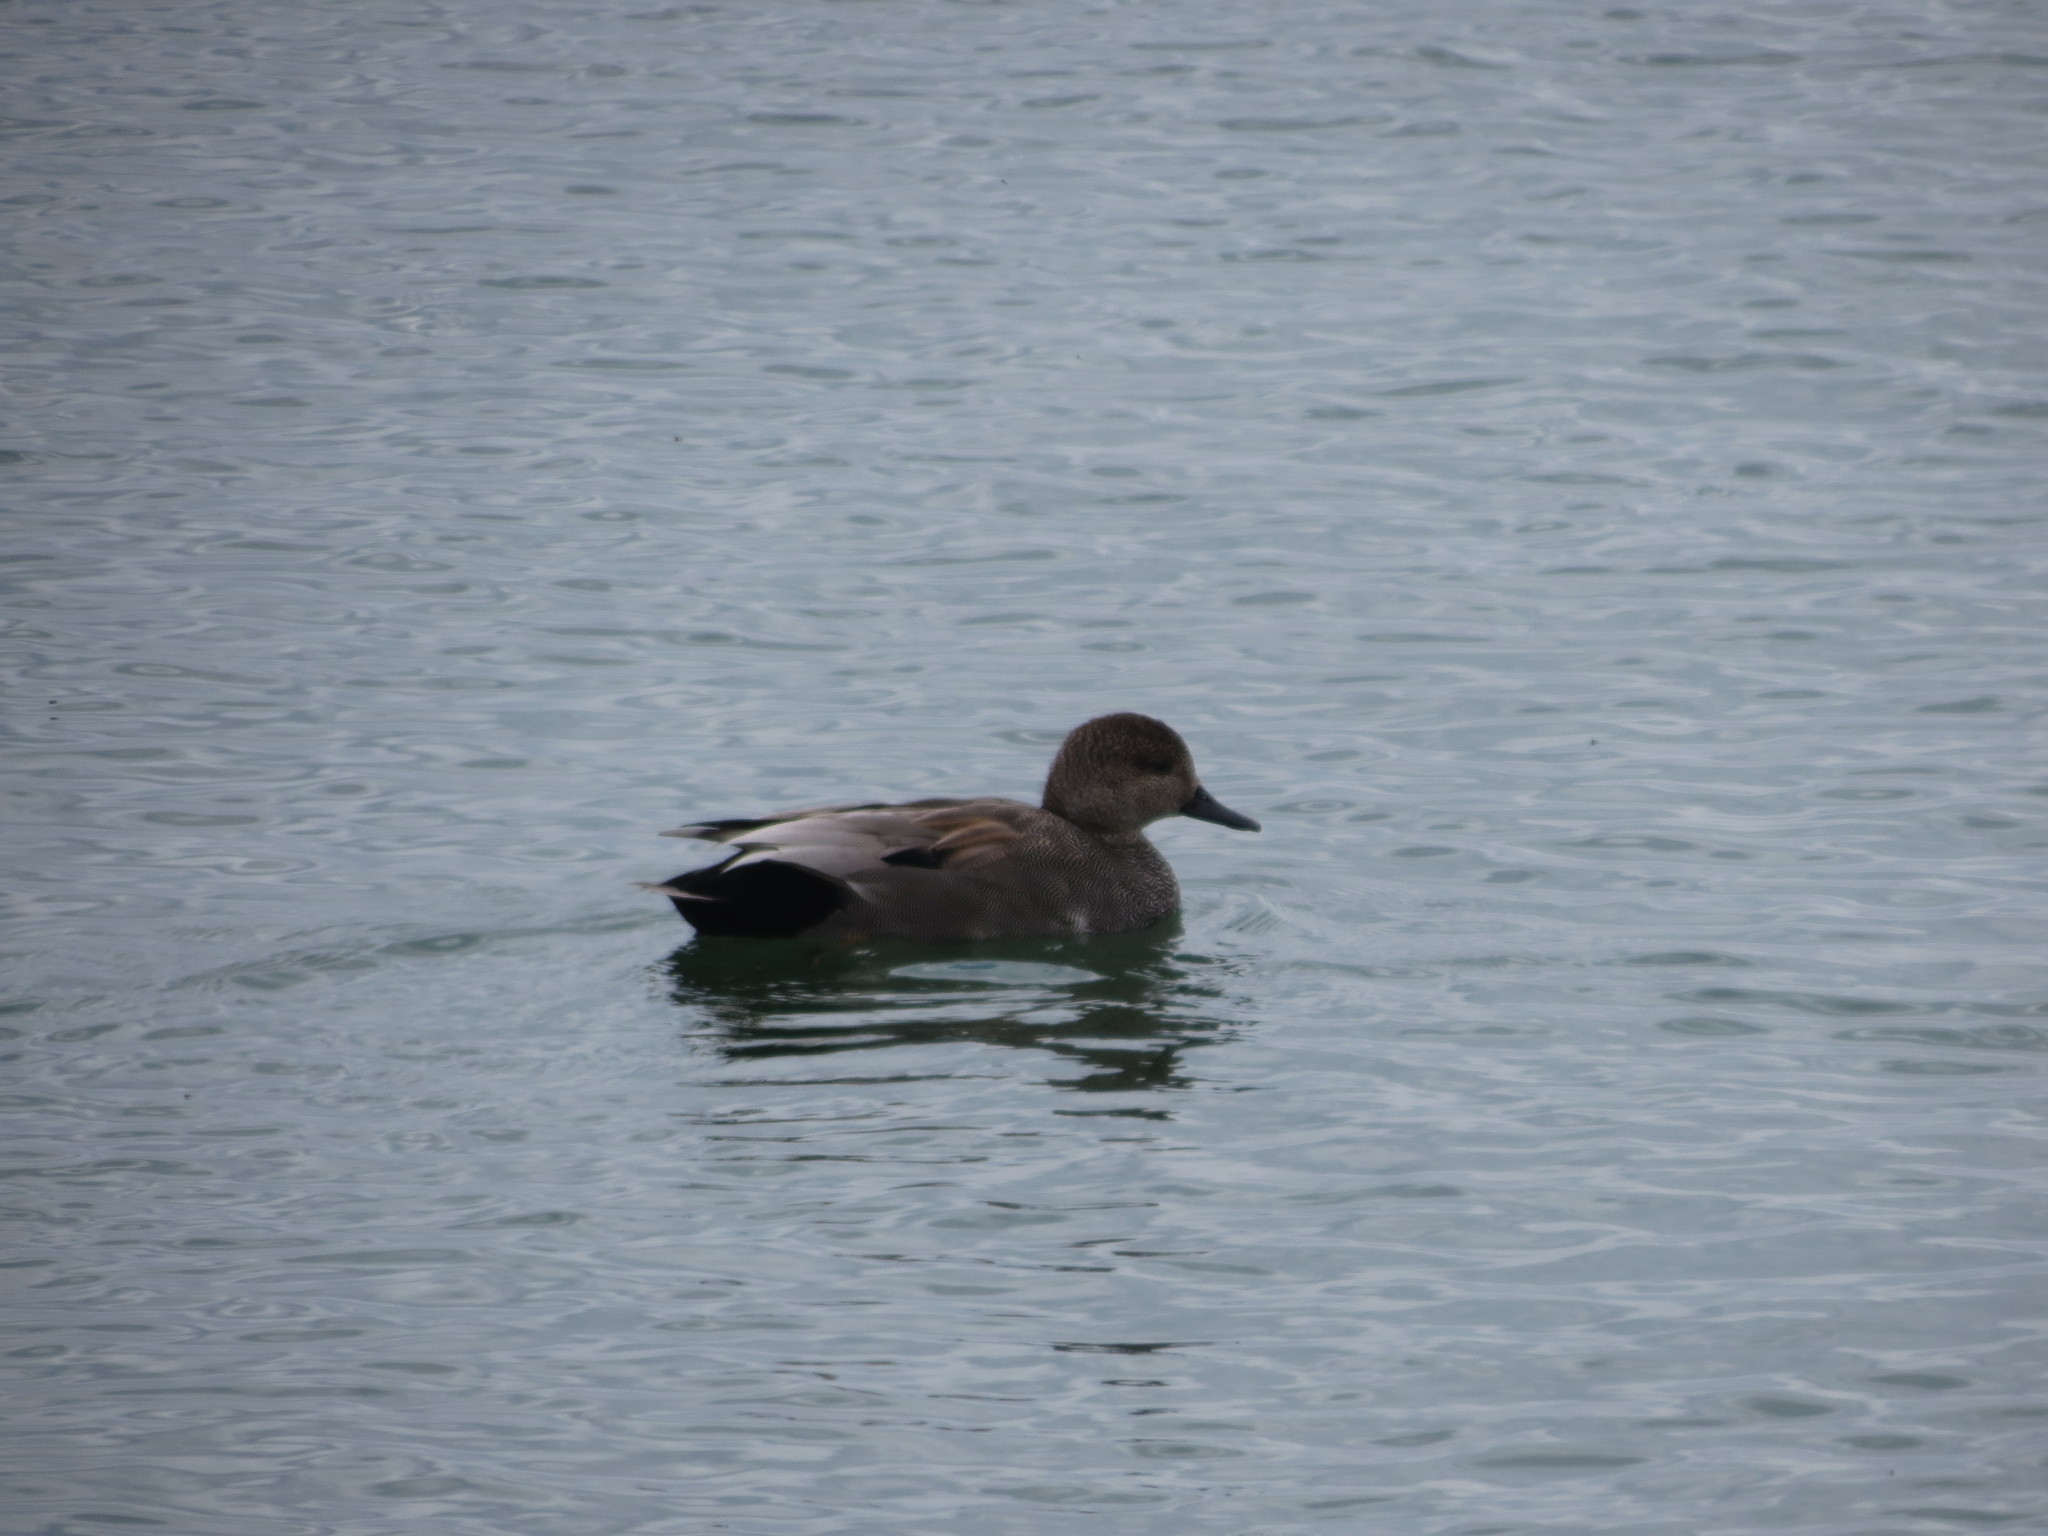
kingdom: Animalia
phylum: Chordata
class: Aves
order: Anseriformes
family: Anatidae
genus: Mareca
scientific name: Mareca strepera
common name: Gadwall
